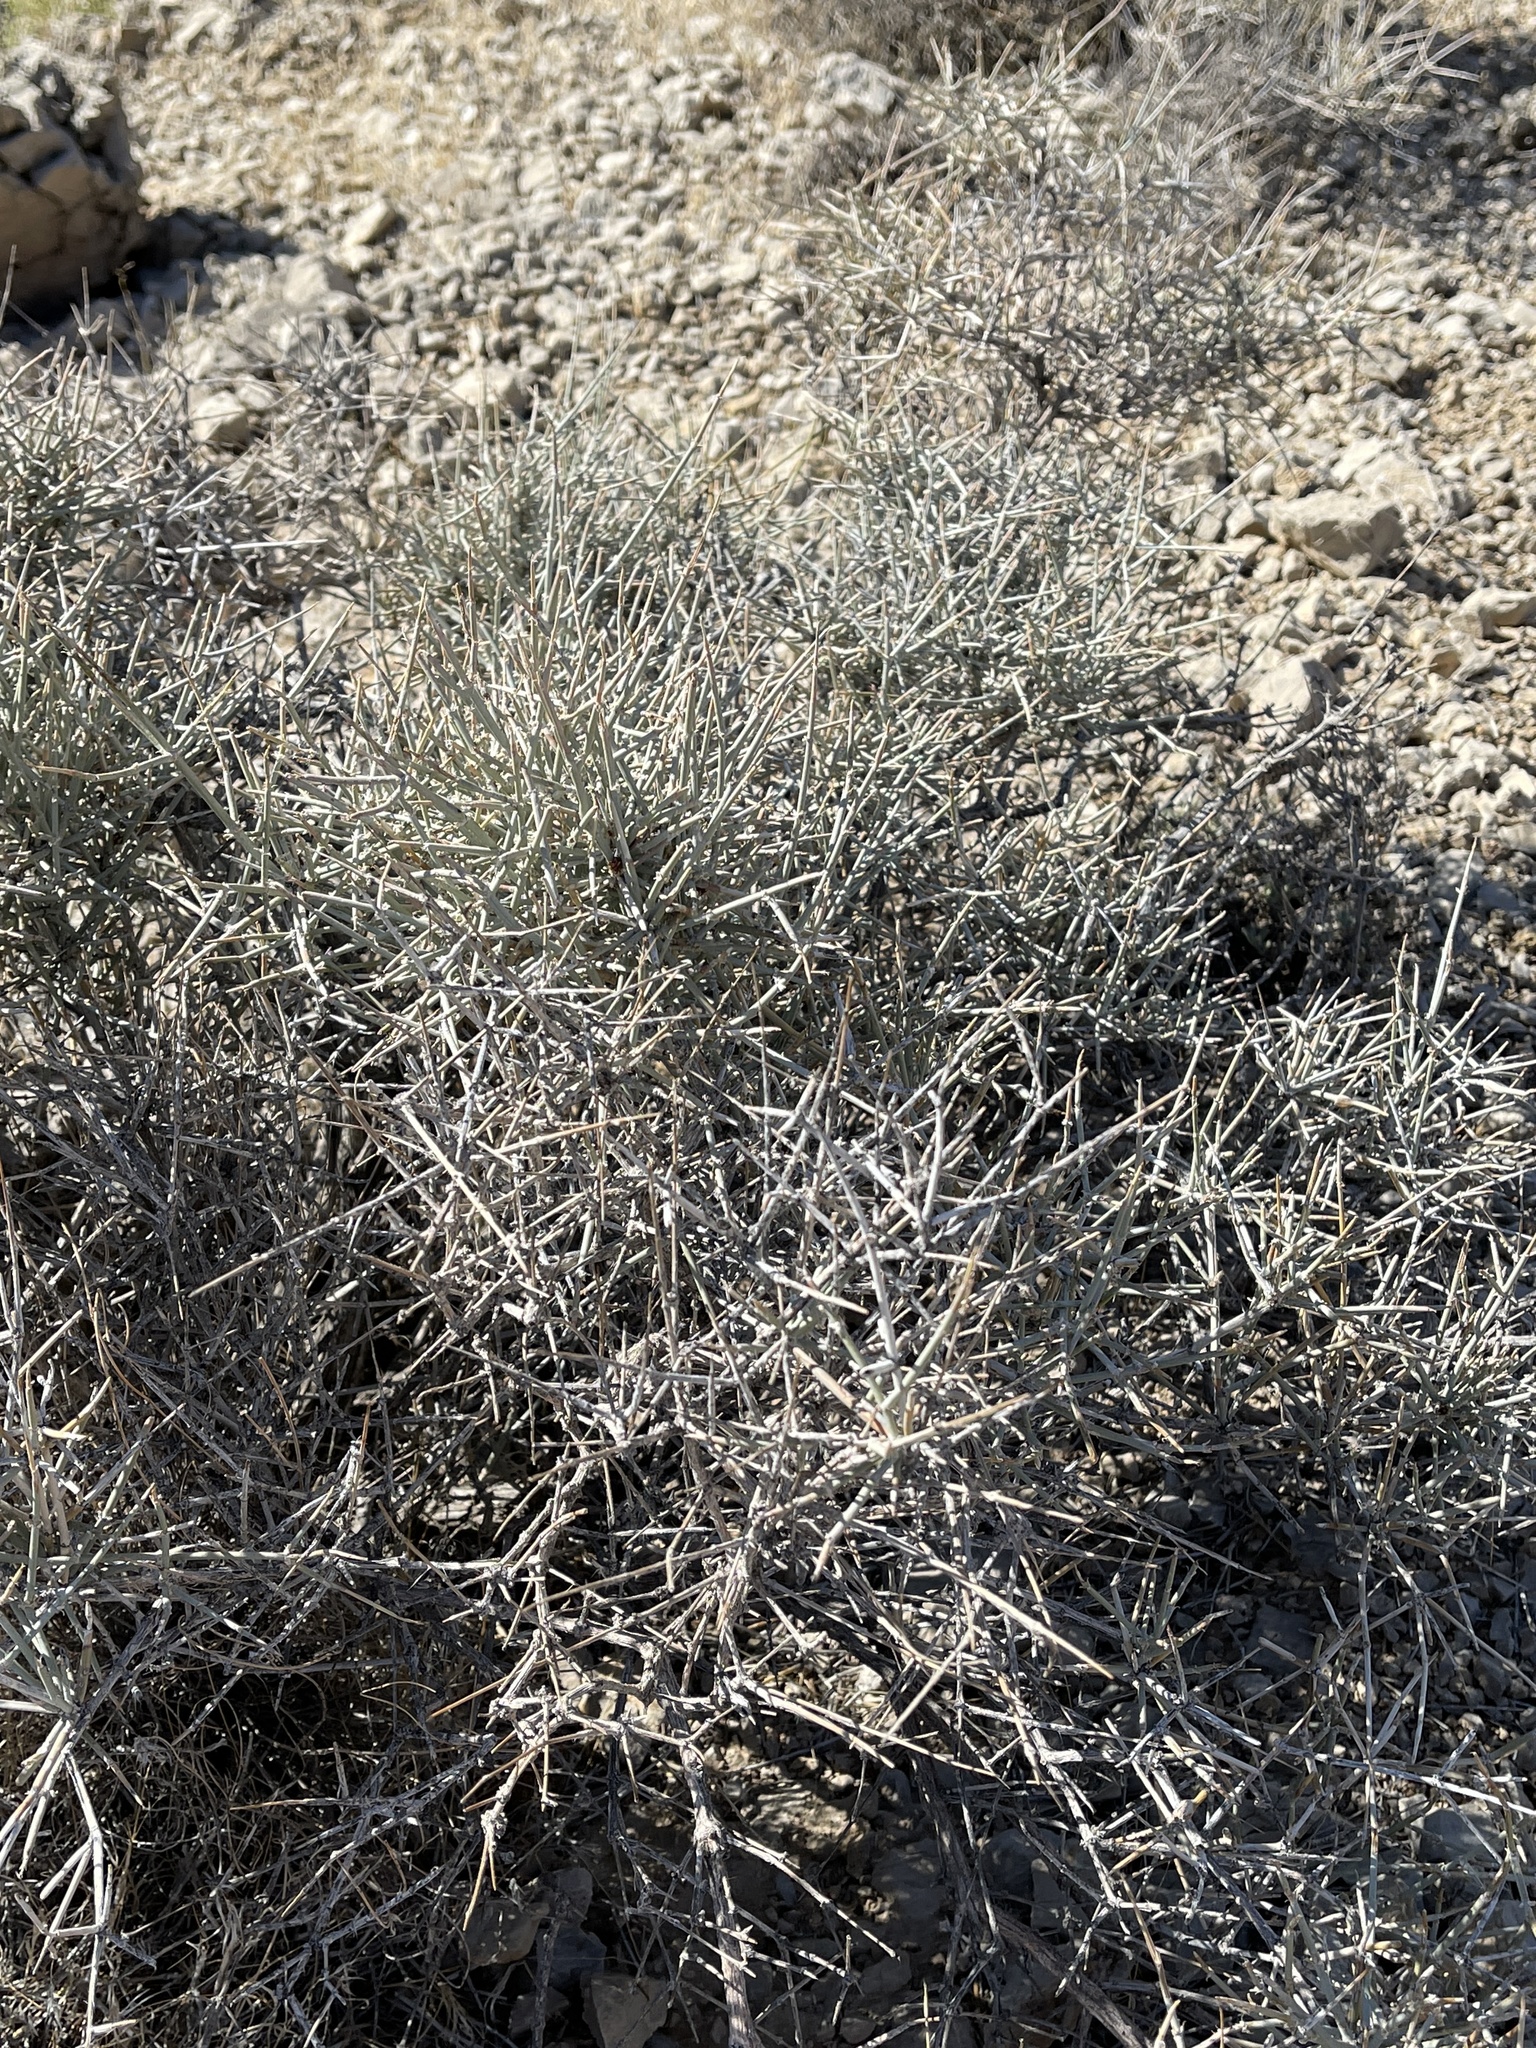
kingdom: Plantae
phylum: Tracheophyta
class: Gnetopsida
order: Ephedrales
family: Ephedraceae
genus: Ephedra
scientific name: Ephedra nevadensis
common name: Gray ephedra
